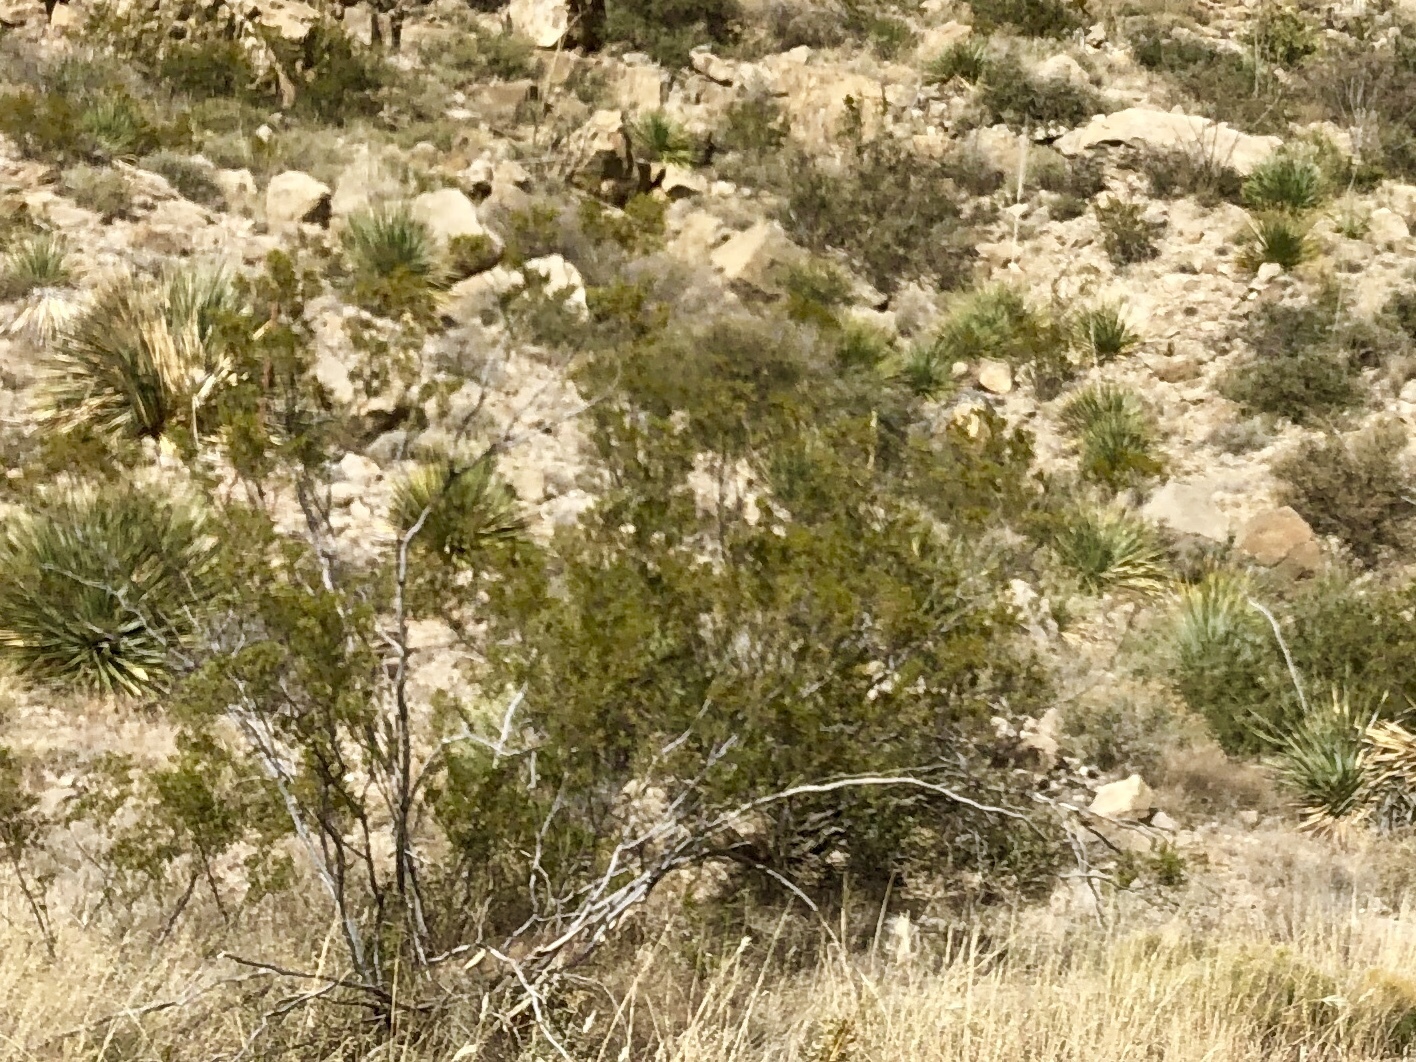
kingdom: Plantae
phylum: Tracheophyta
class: Magnoliopsida
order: Zygophyllales
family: Zygophyllaceae
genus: Larrea
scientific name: Larrea tridentata
